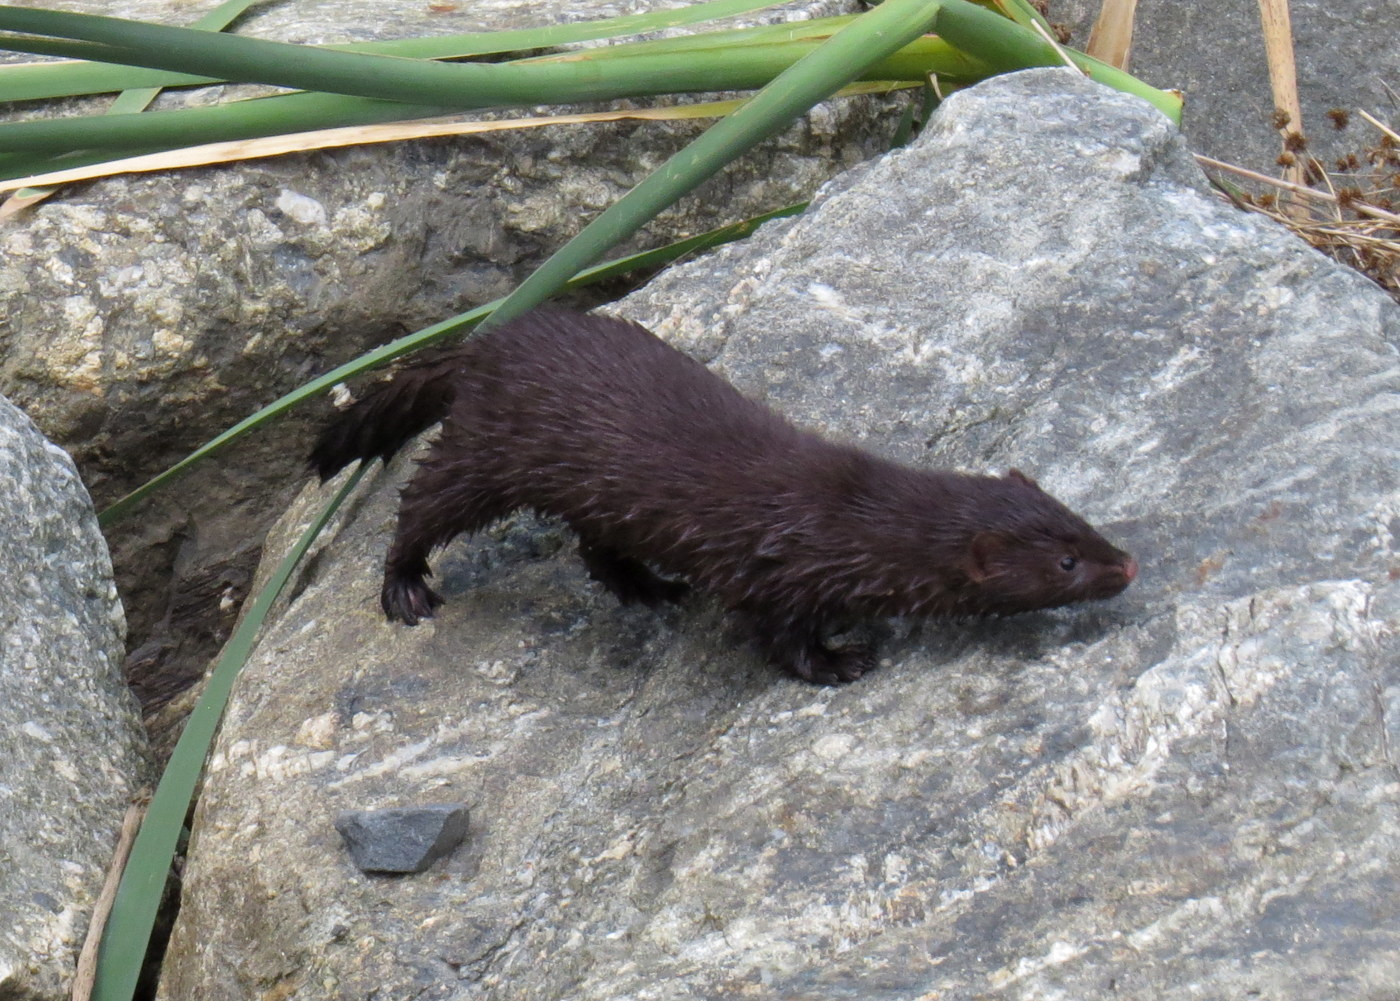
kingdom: Animalia
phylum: Chordata
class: Mammalia
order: Carnivora
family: Mustelidae
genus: Mustela
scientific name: Mustela
